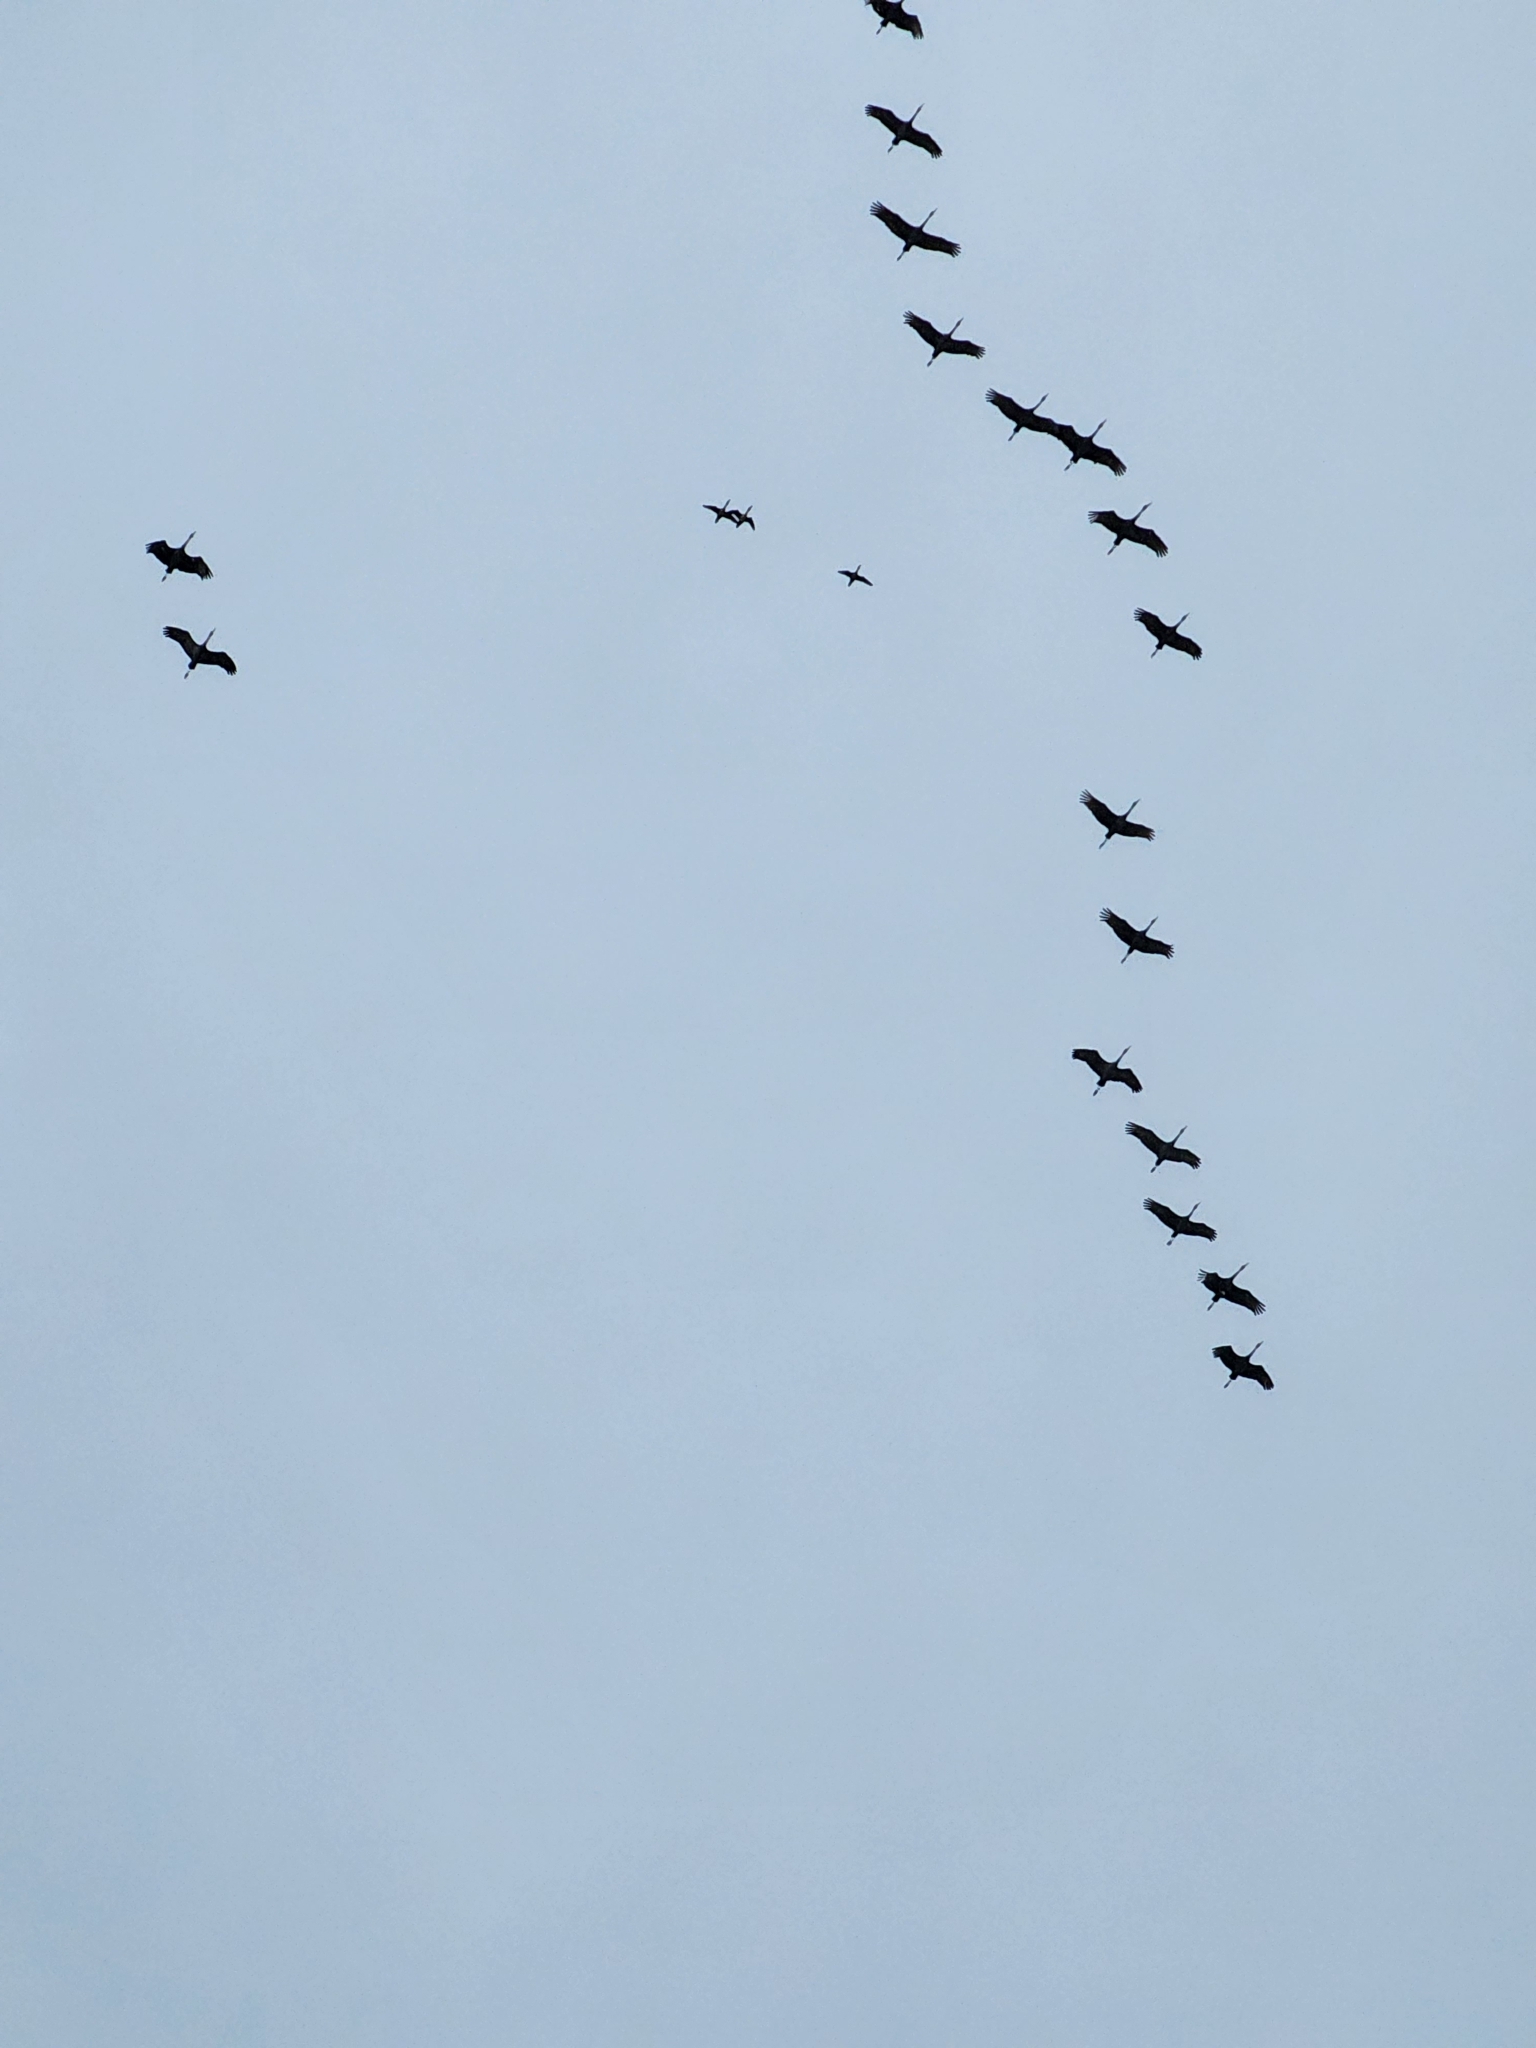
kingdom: Animalia
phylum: Chordata
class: Aves
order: Suliformes
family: Phalacrocoracidae
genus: Phalacrocorax
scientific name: Phalacrocorax auritus
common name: Double-crested cormorant
